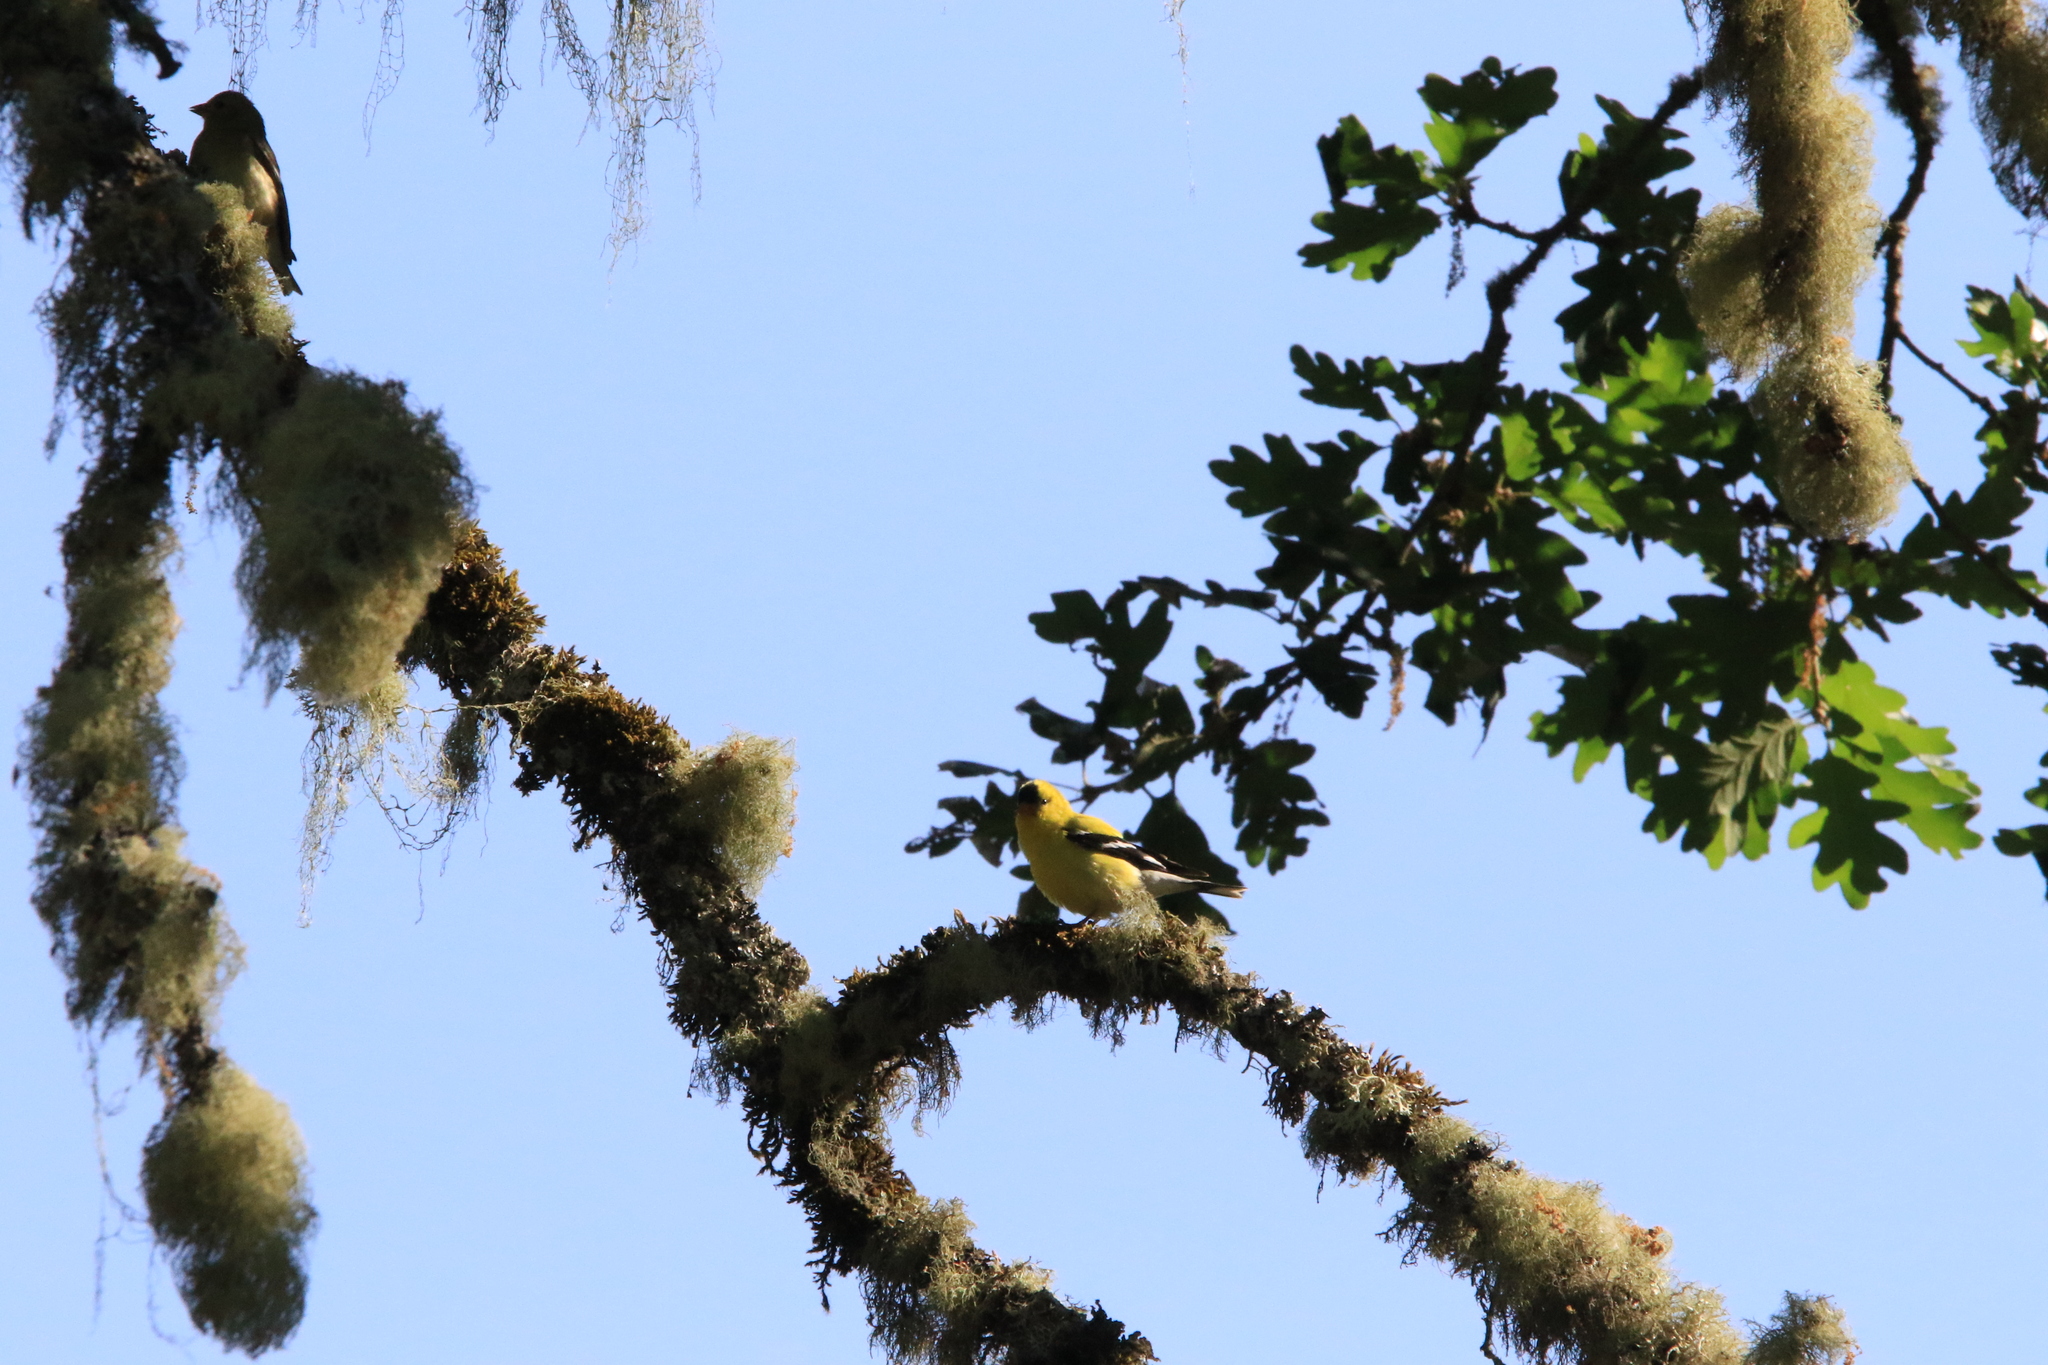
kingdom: Animalia
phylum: Chordata
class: Aves
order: Passeriformes
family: Fringillidae
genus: Spinus
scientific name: Spinus tristis
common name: American goldfinch
